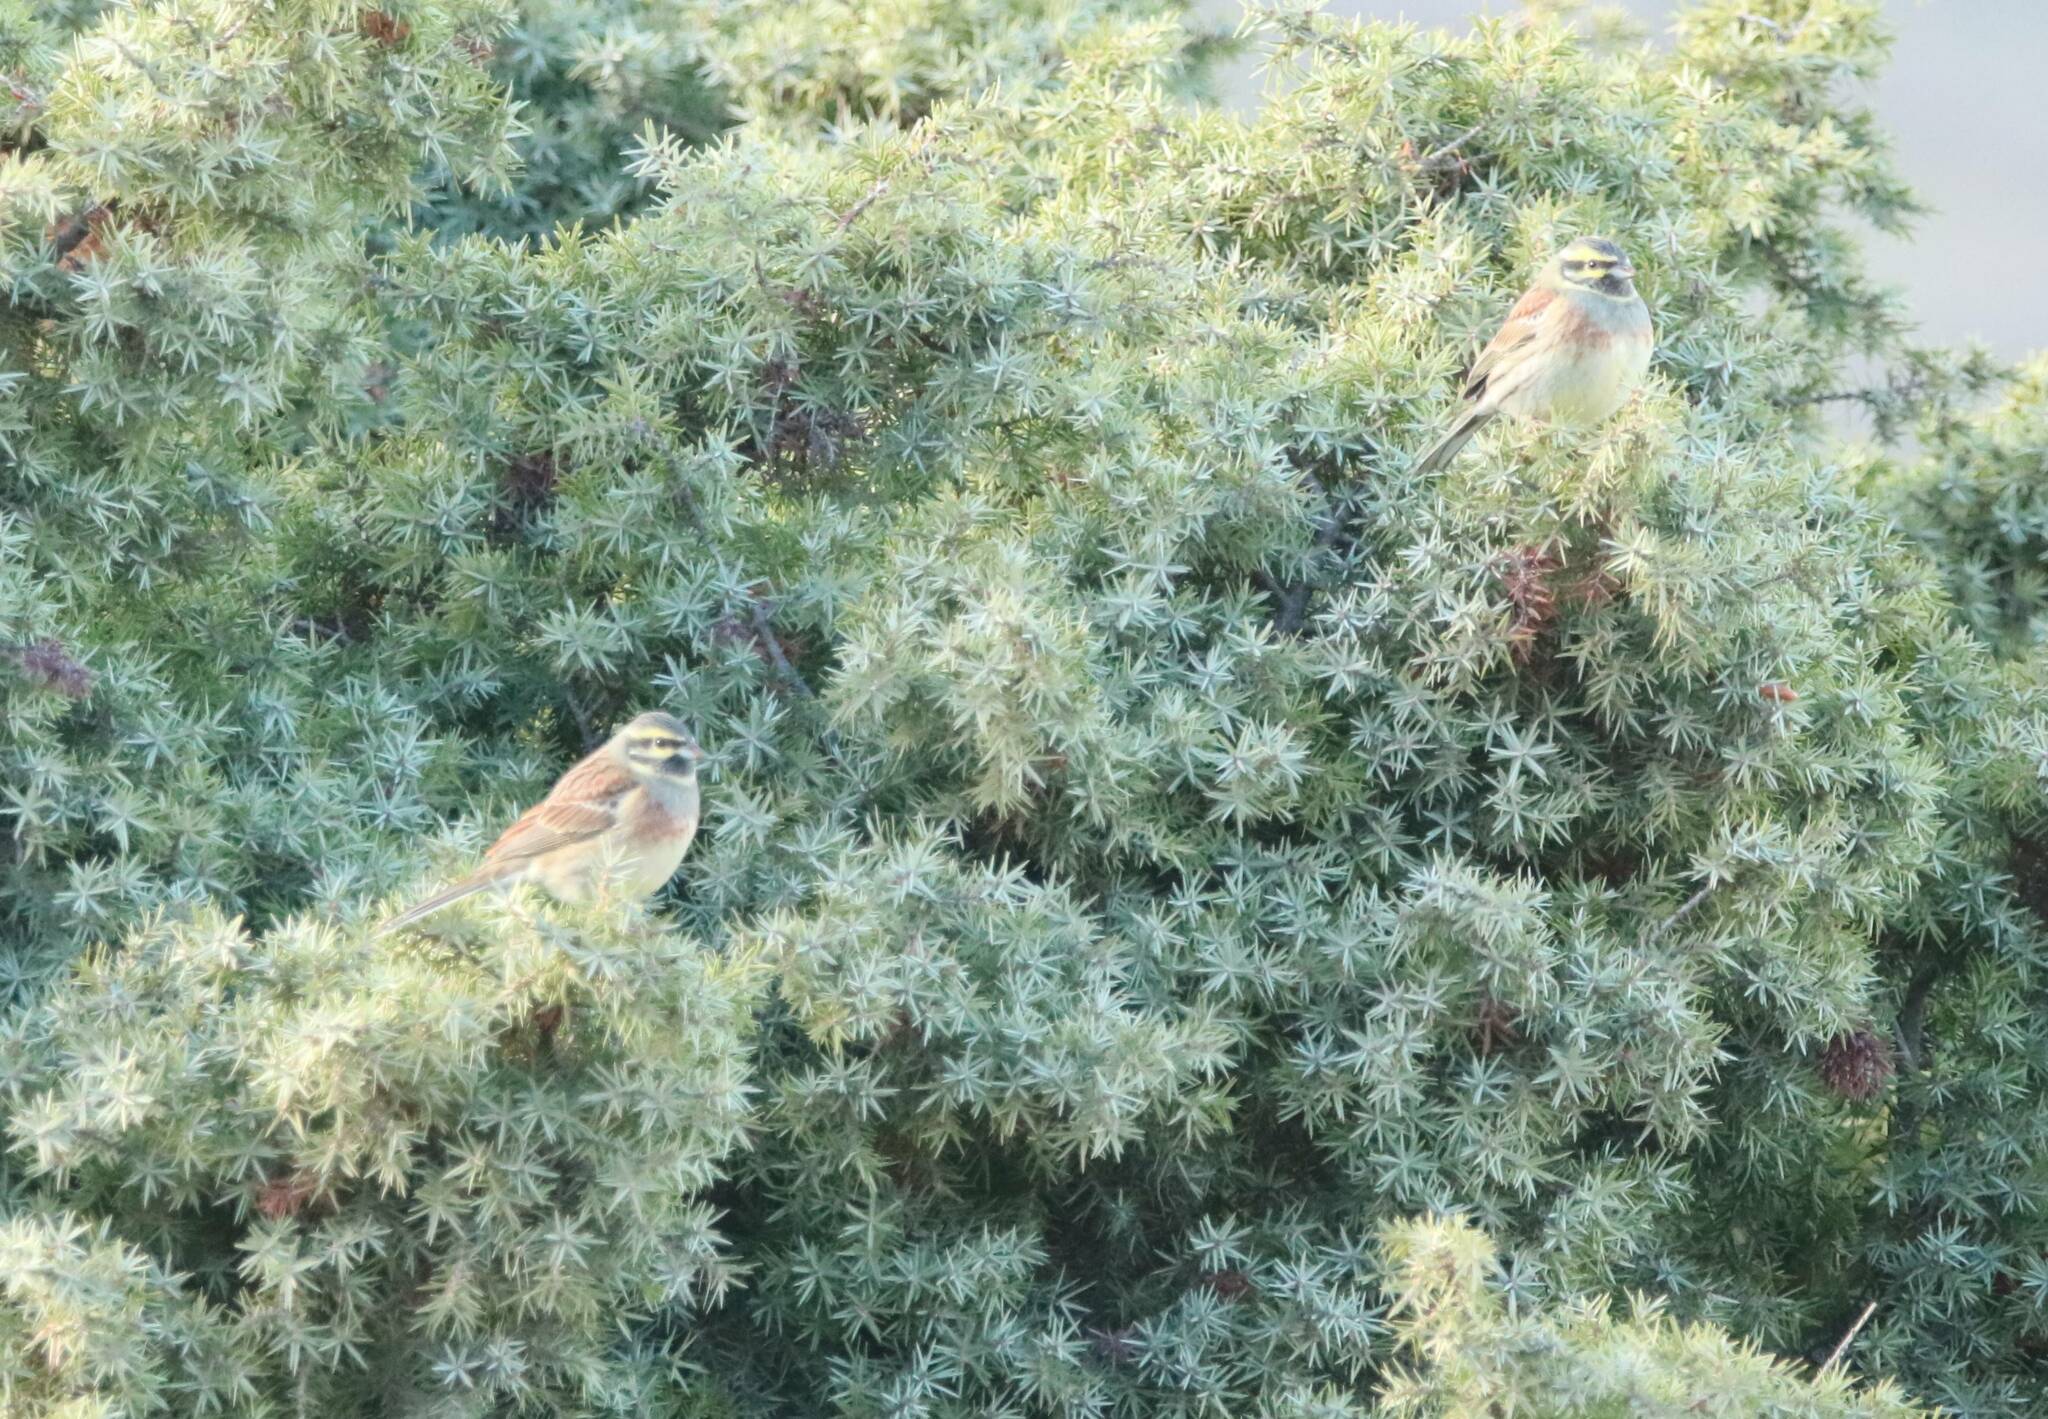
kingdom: Animalia
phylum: Chordata
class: Aves
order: Passeriformes
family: Emberizidae
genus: Emberiza
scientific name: Emberiza cirlus
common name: Cirl bunting
